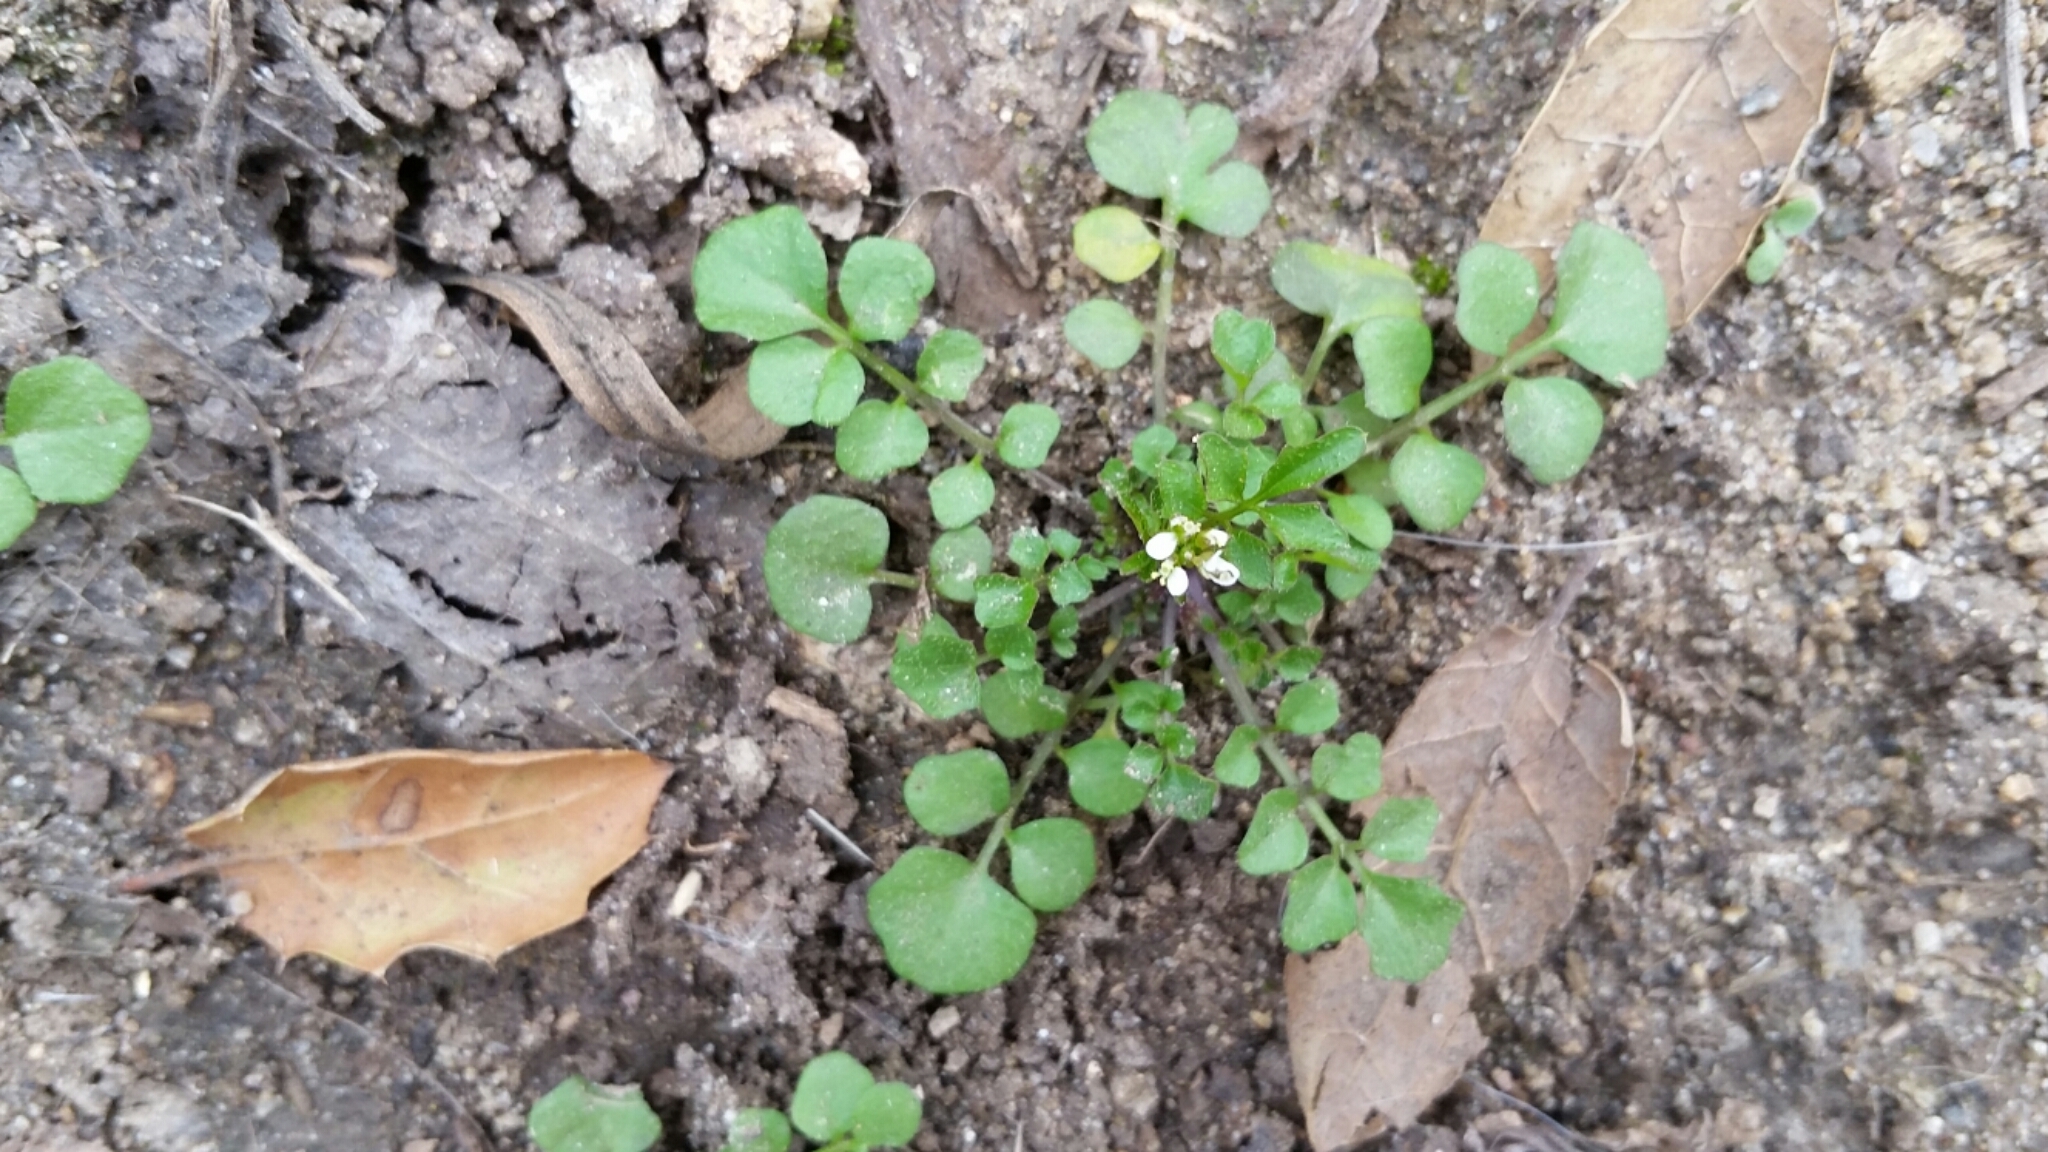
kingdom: Plantae
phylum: Tracheophyta
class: Magnoliopsida
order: Brassicales
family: Brassicaceae
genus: Cardamine
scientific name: Cardamine hirsuta
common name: Hairy bittercress
